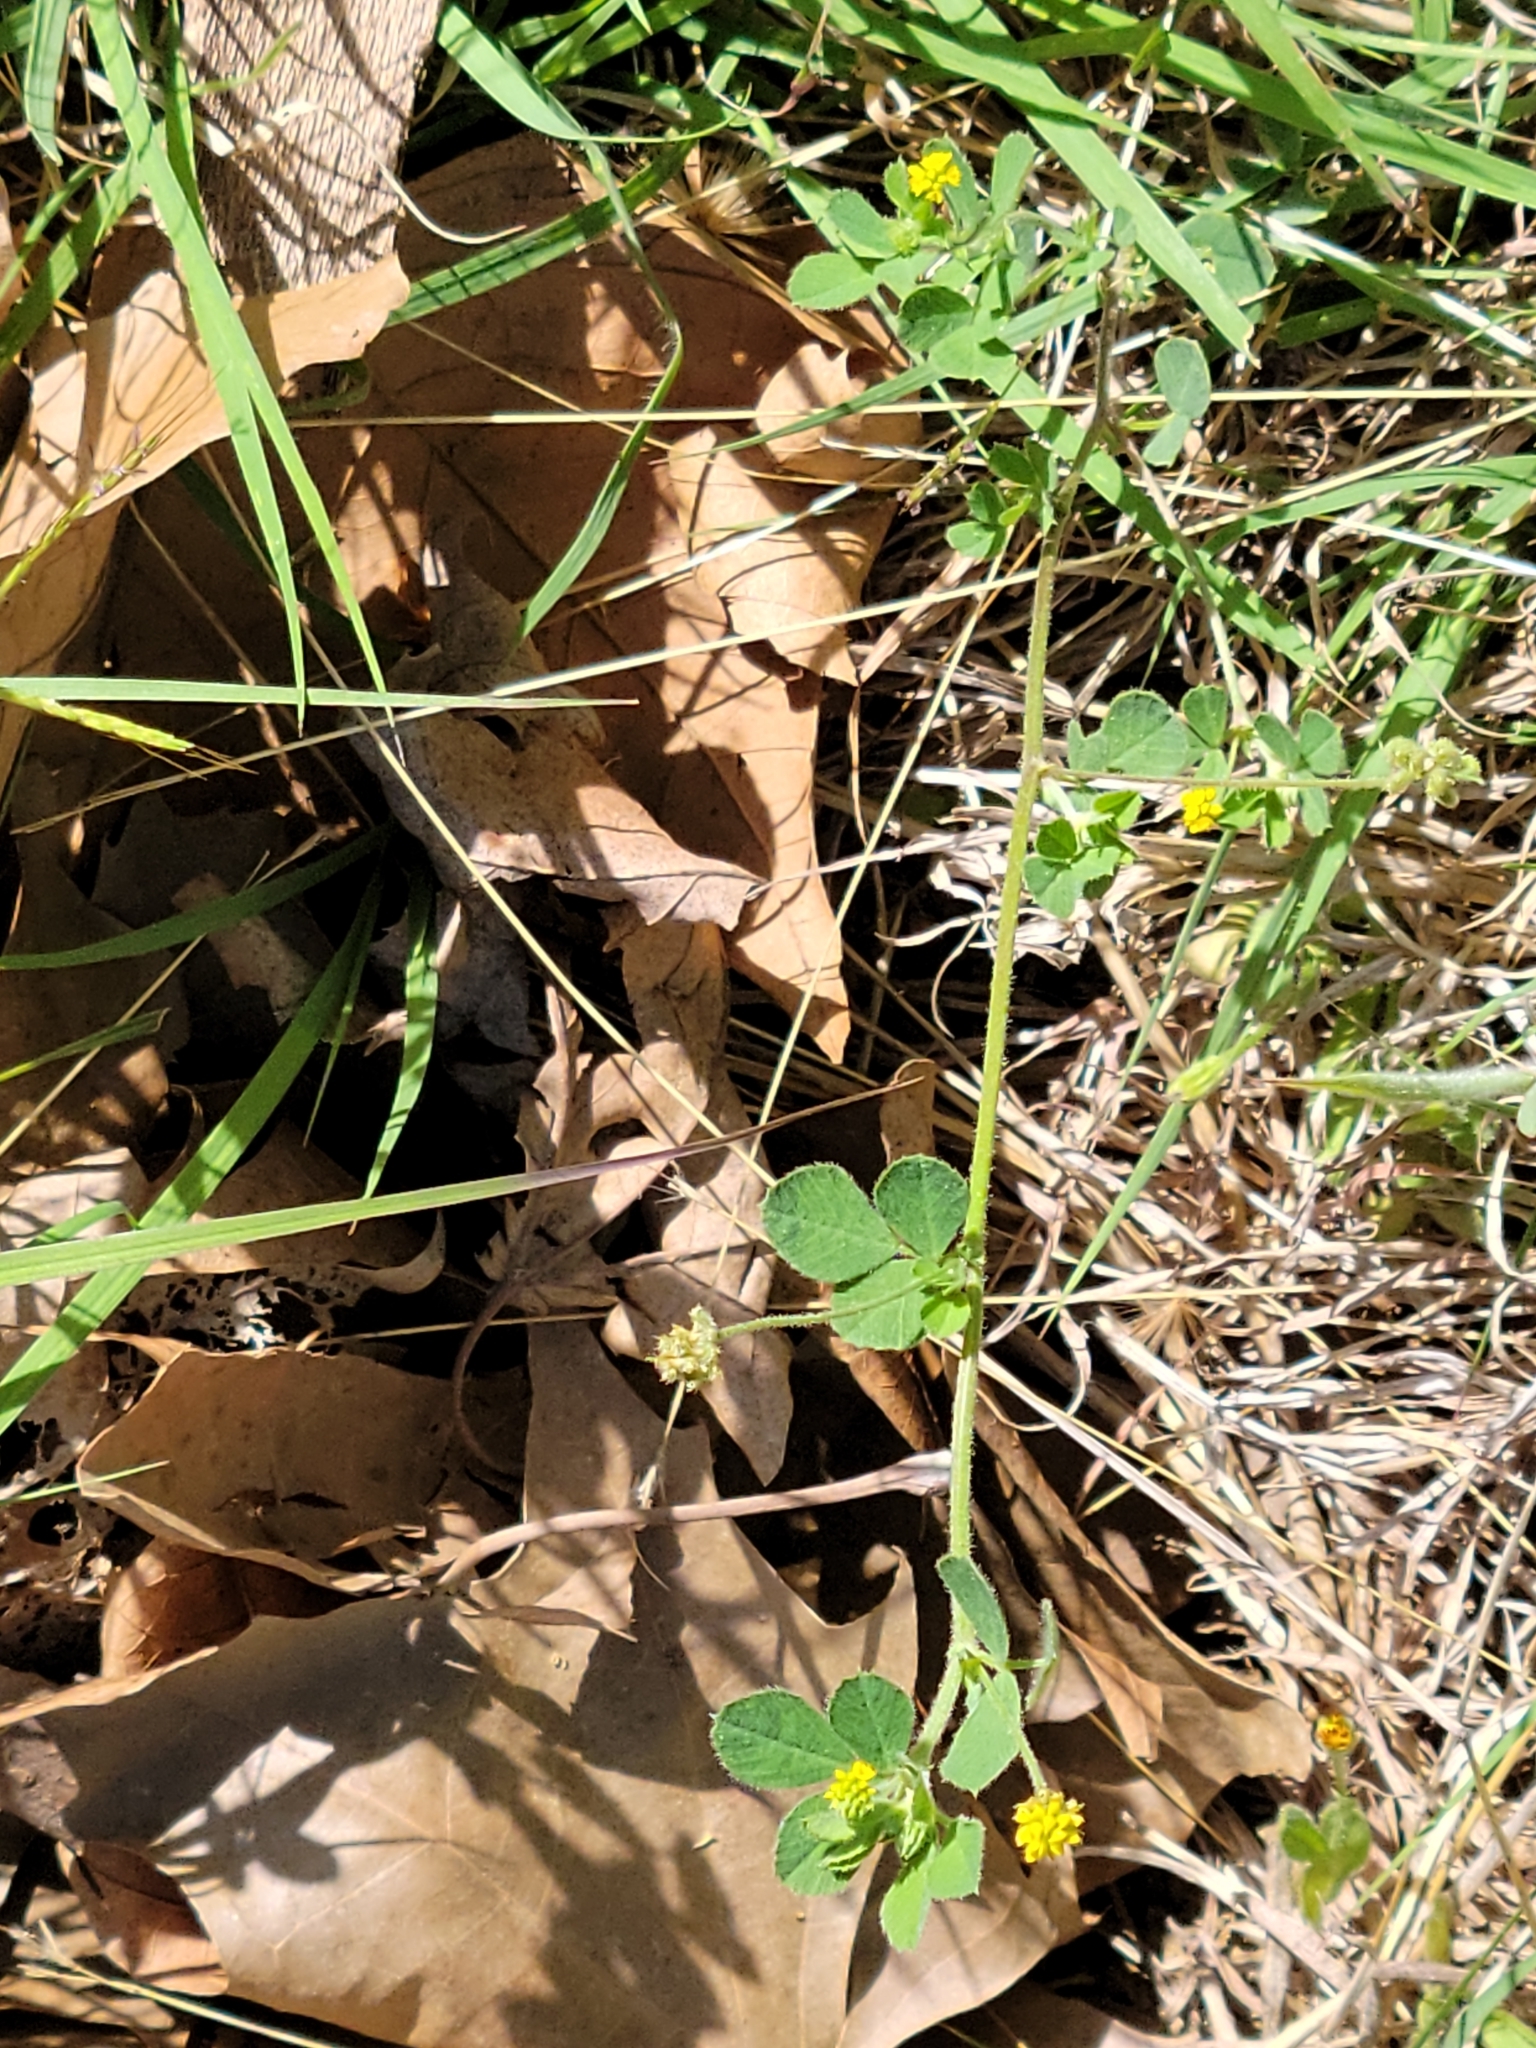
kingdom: Plantae
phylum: Tracheophyta
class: Magnoliopsida
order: Fabales
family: Fabaceae
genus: Medicago
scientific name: Medicago lupulina
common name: Black medick
